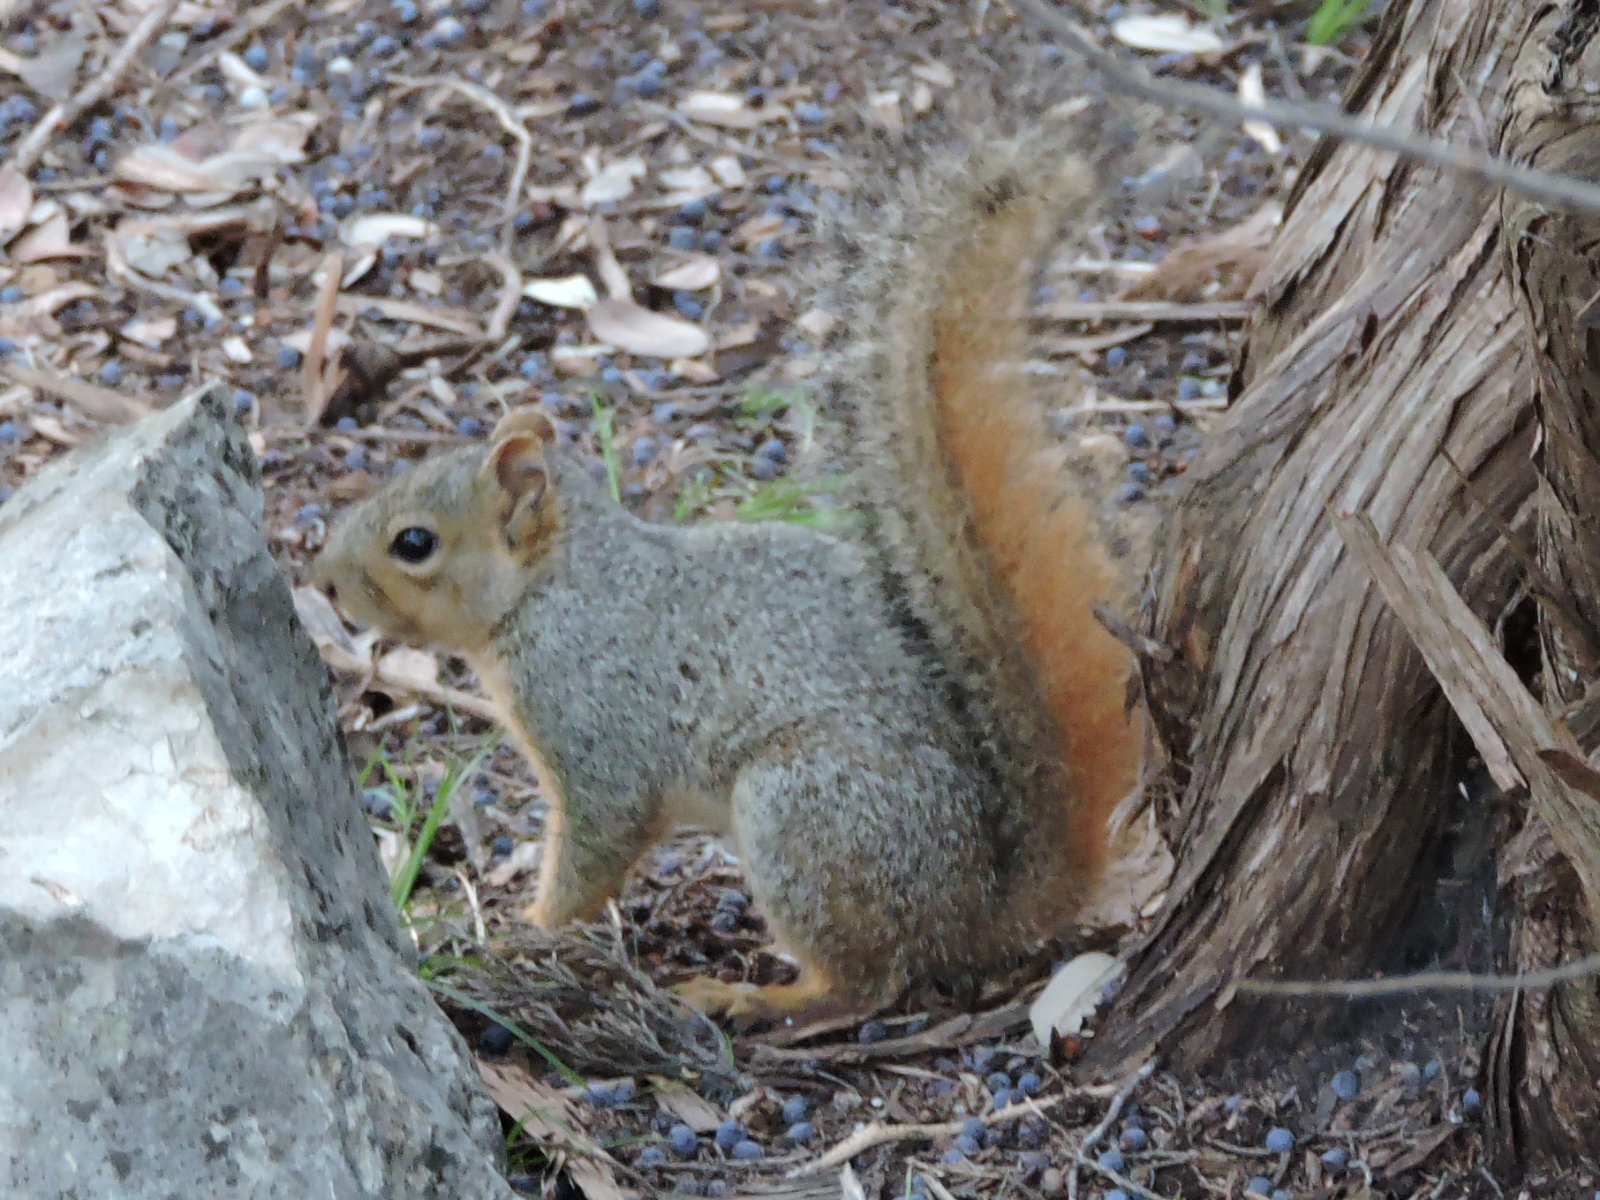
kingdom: Animalia
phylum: Chordata
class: Mammalia
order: Rodentia
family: Sciuridae
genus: Sciurus
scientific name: Sciurus niger
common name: Fox squirrel
